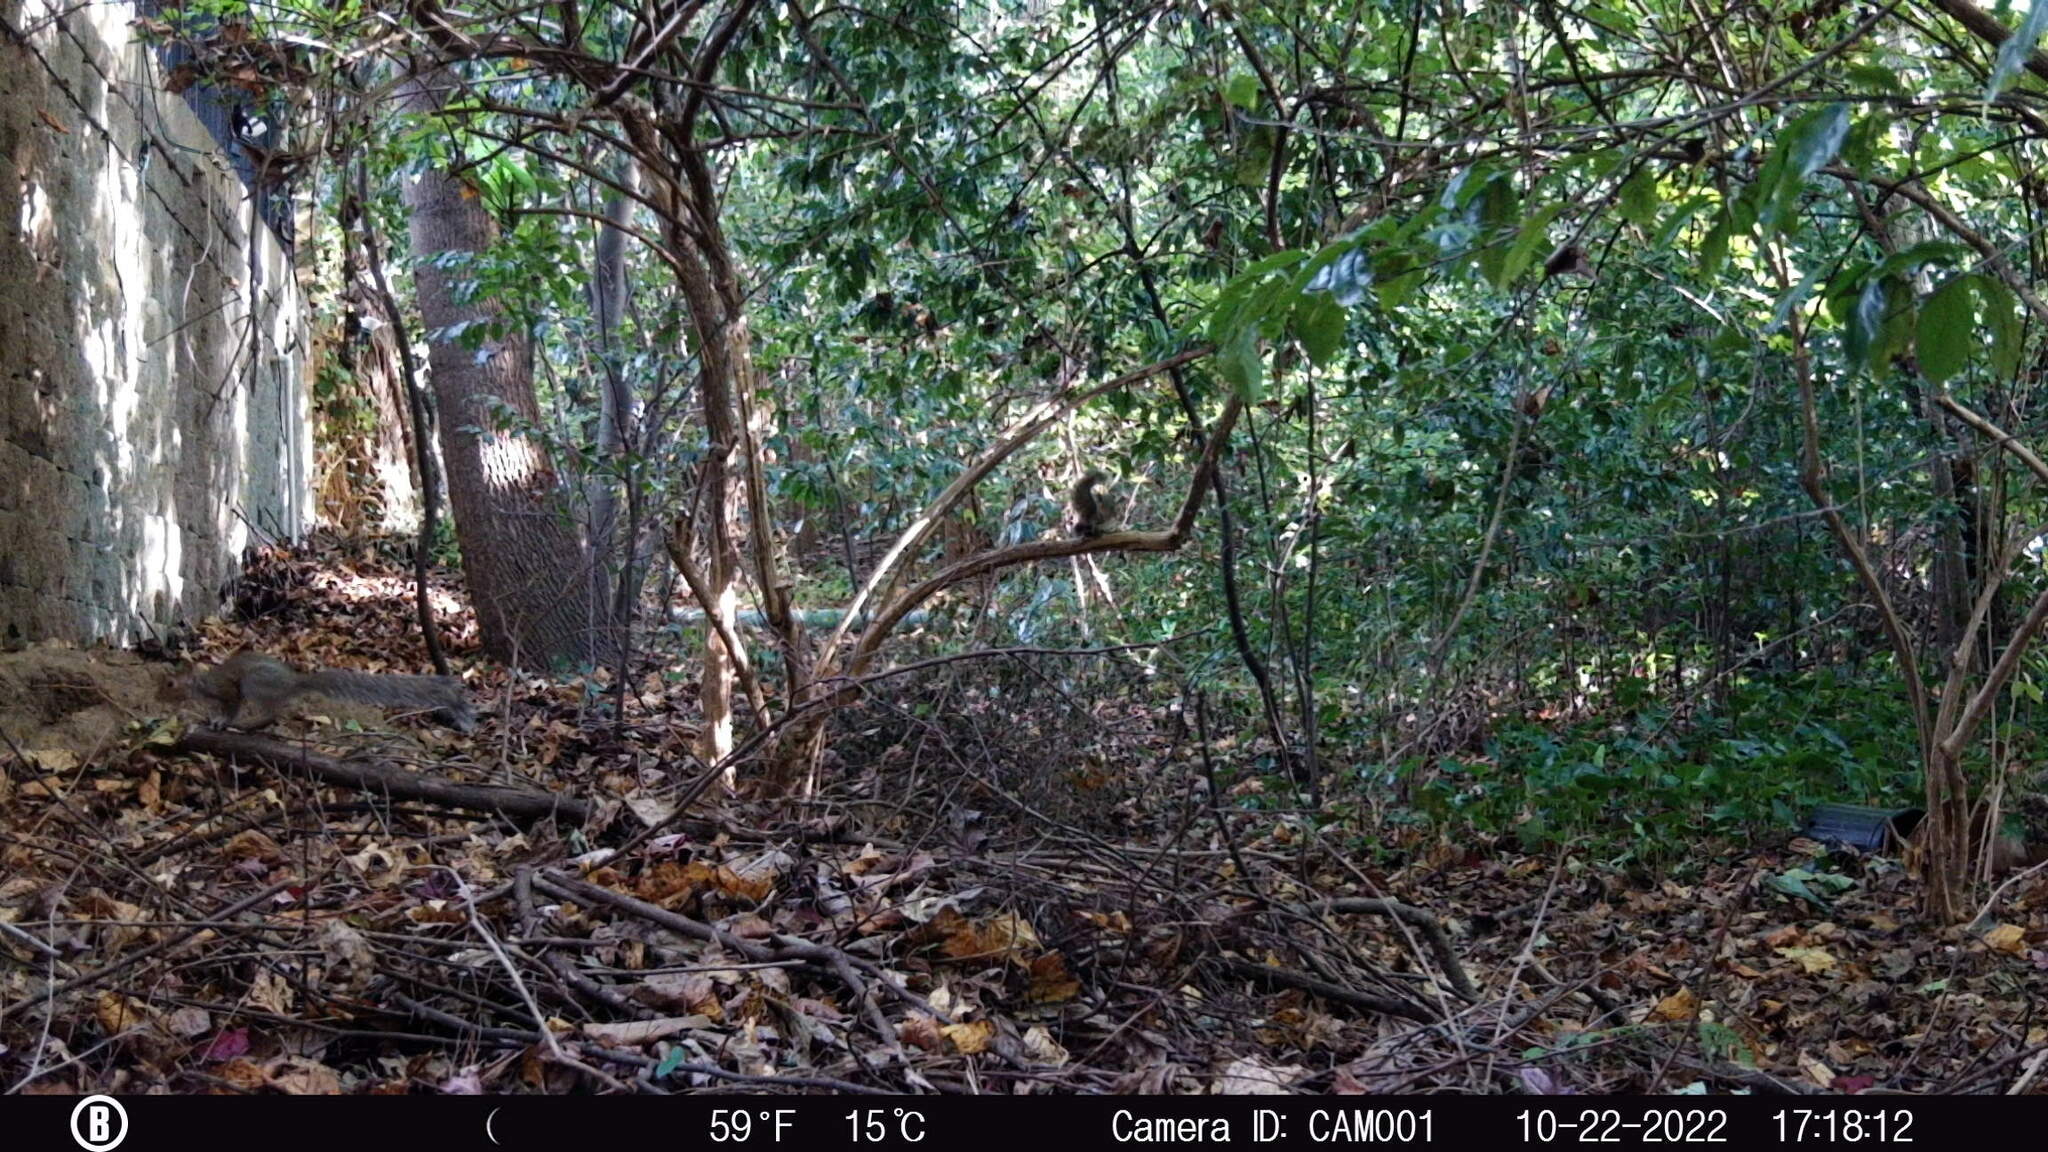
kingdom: Animalia
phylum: Chordata
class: Mammalia
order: Rodentia
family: Sciuridae
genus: Sciurus
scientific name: Sciurus carolinensis
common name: Eastern gray squirrel
